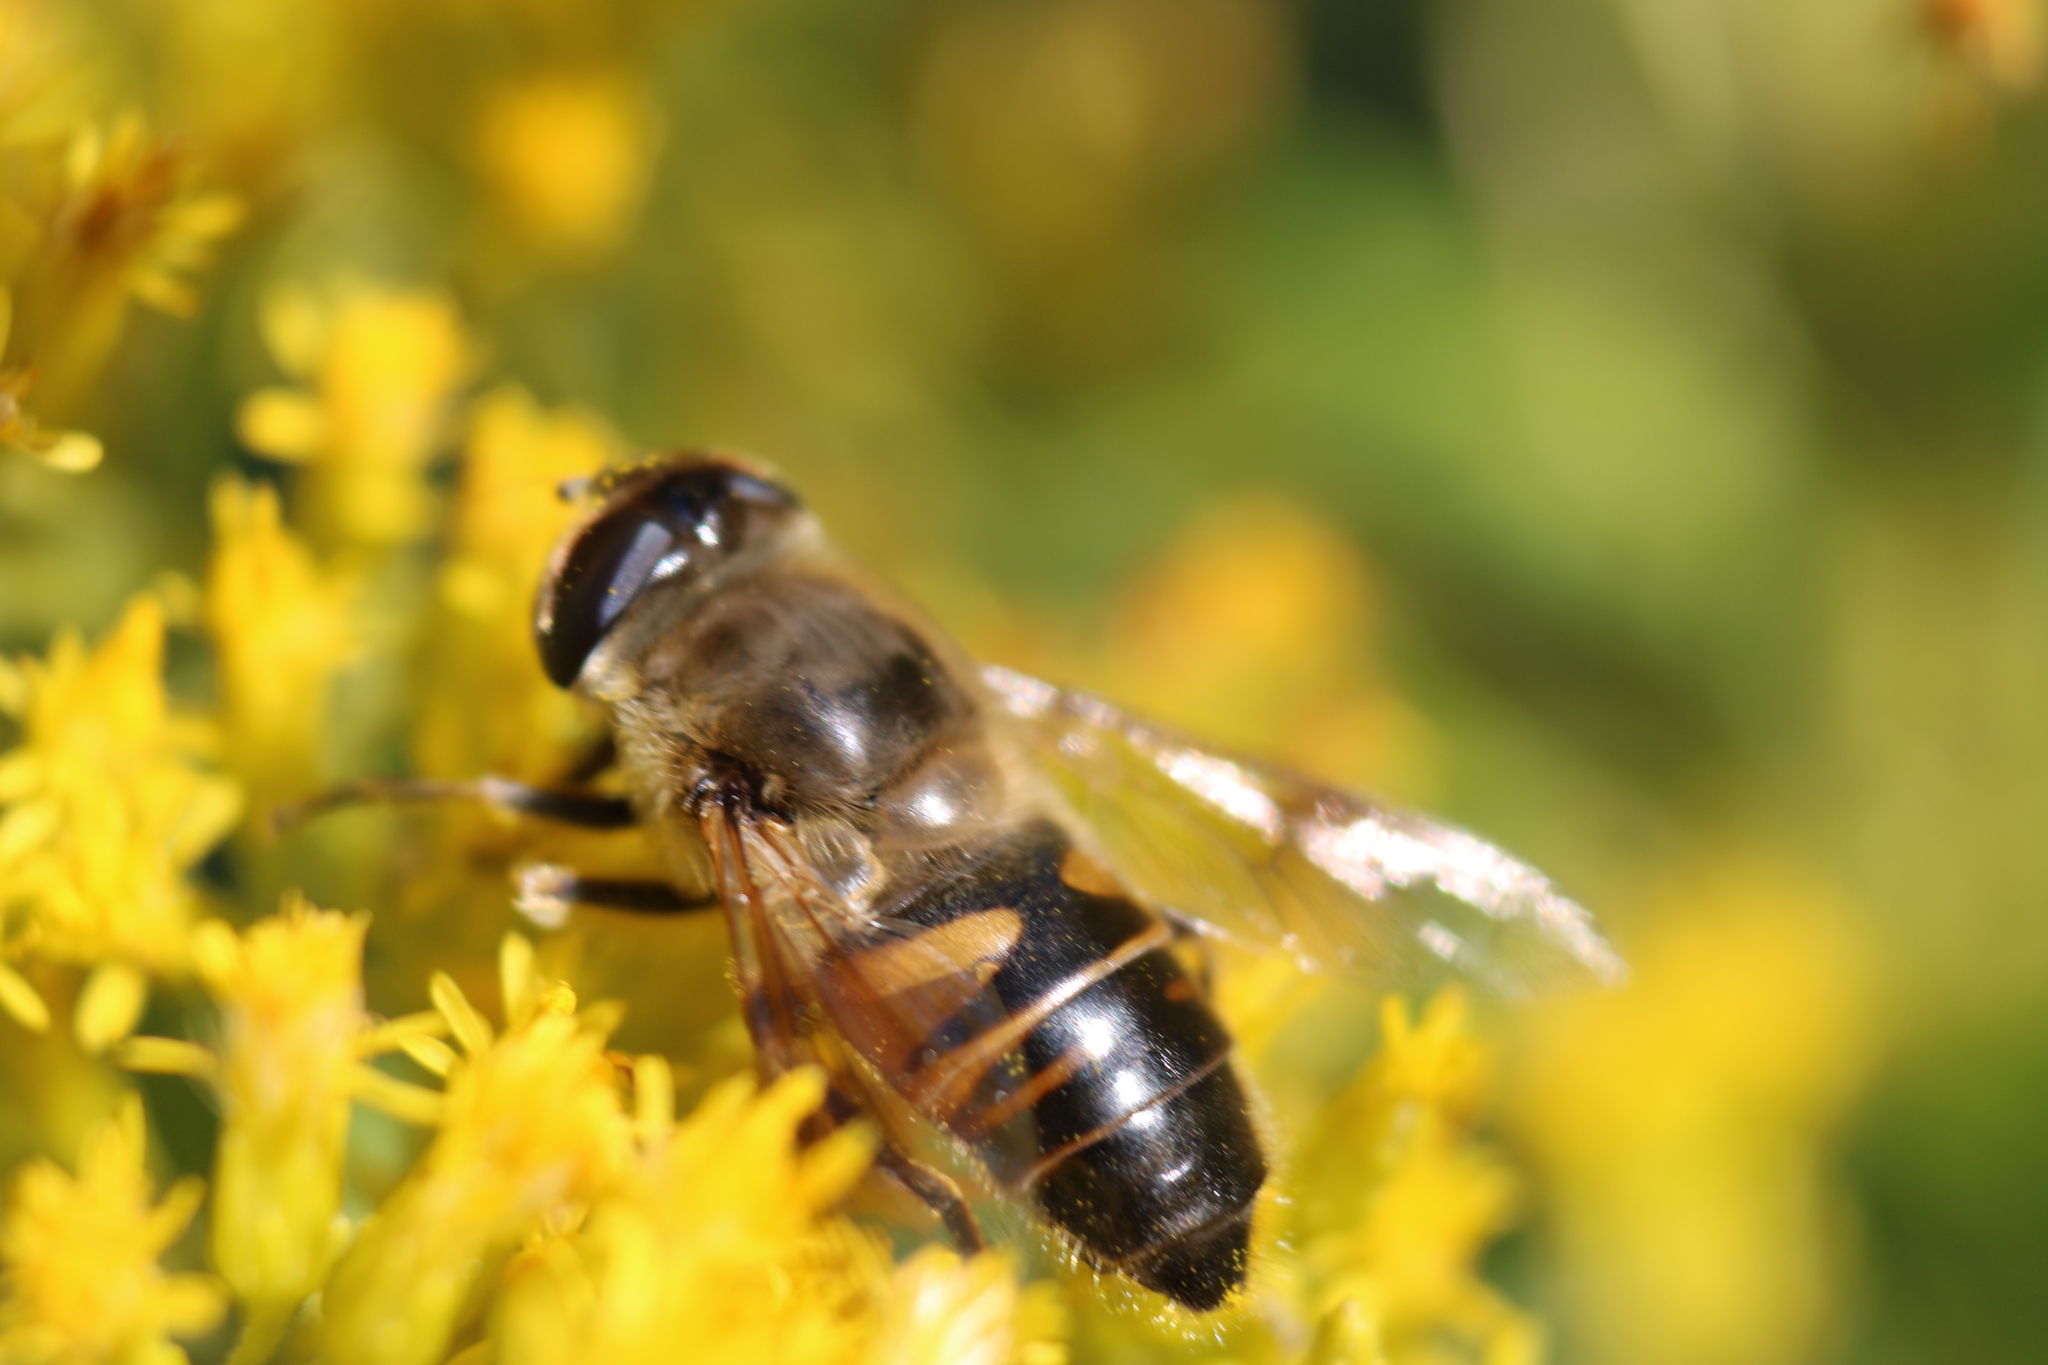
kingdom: Animalia
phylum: Arthropoda
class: Insecta
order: Diptera
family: Syrphidae
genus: Eristalis
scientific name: Eristalis tenax
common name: Drone fly
